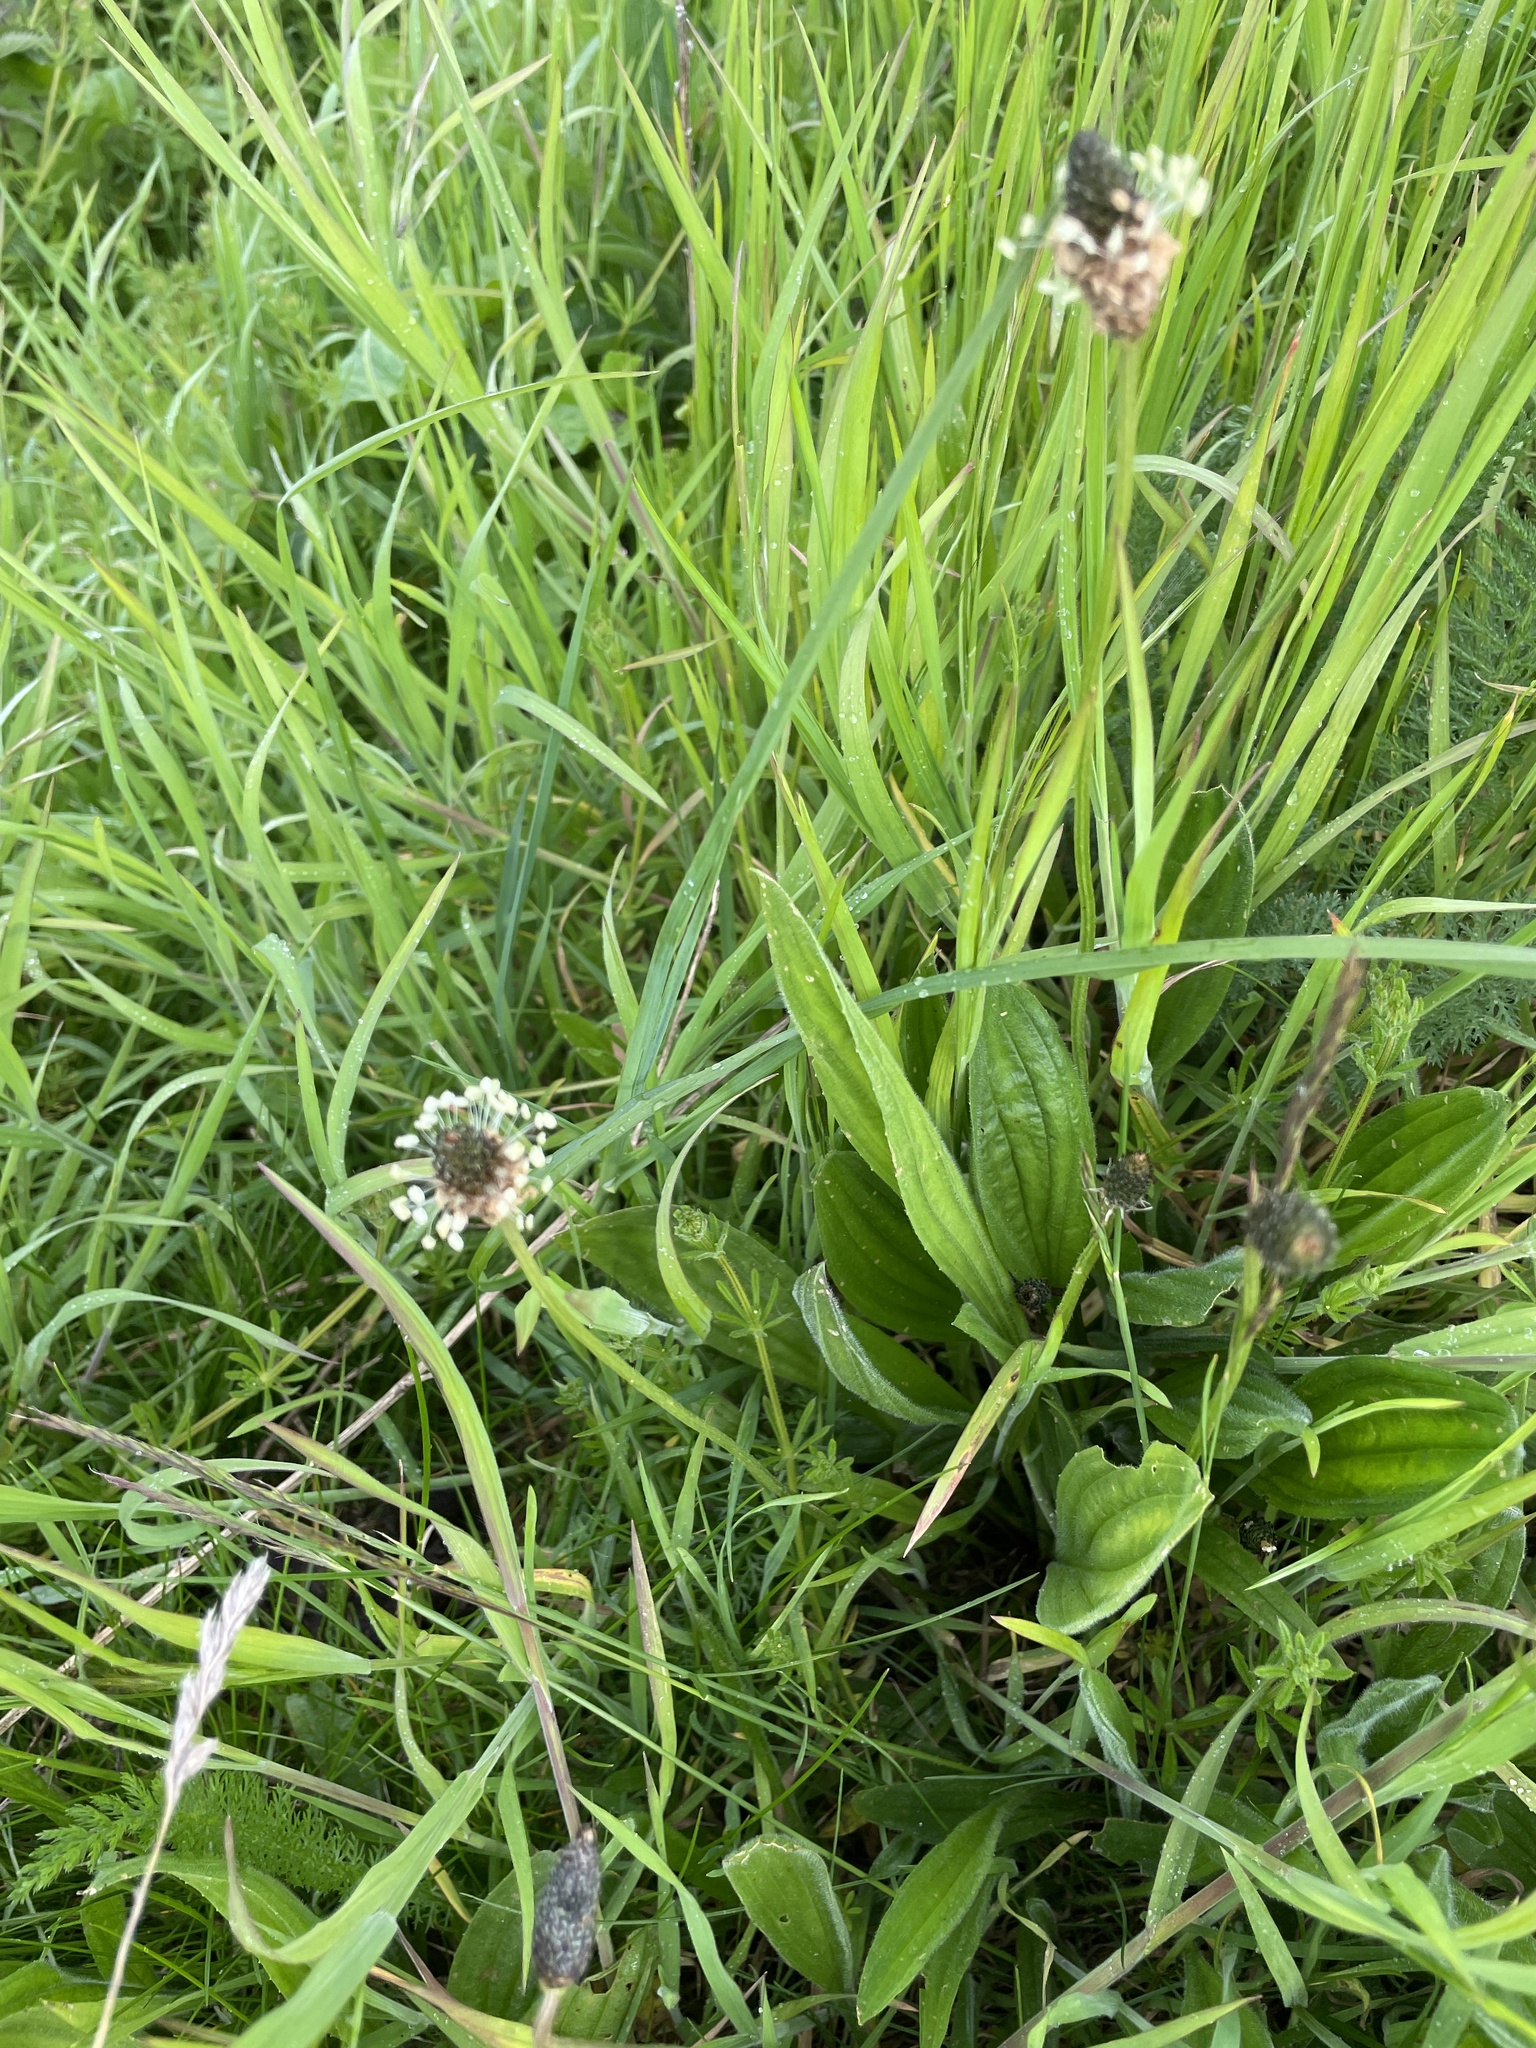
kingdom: Plantae
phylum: Tracheophyta
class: Magnoliopsida
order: Lamiales
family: Plantaginaceae
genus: Plantago
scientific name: Plantago lanceolata
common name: Ribwort plantain
